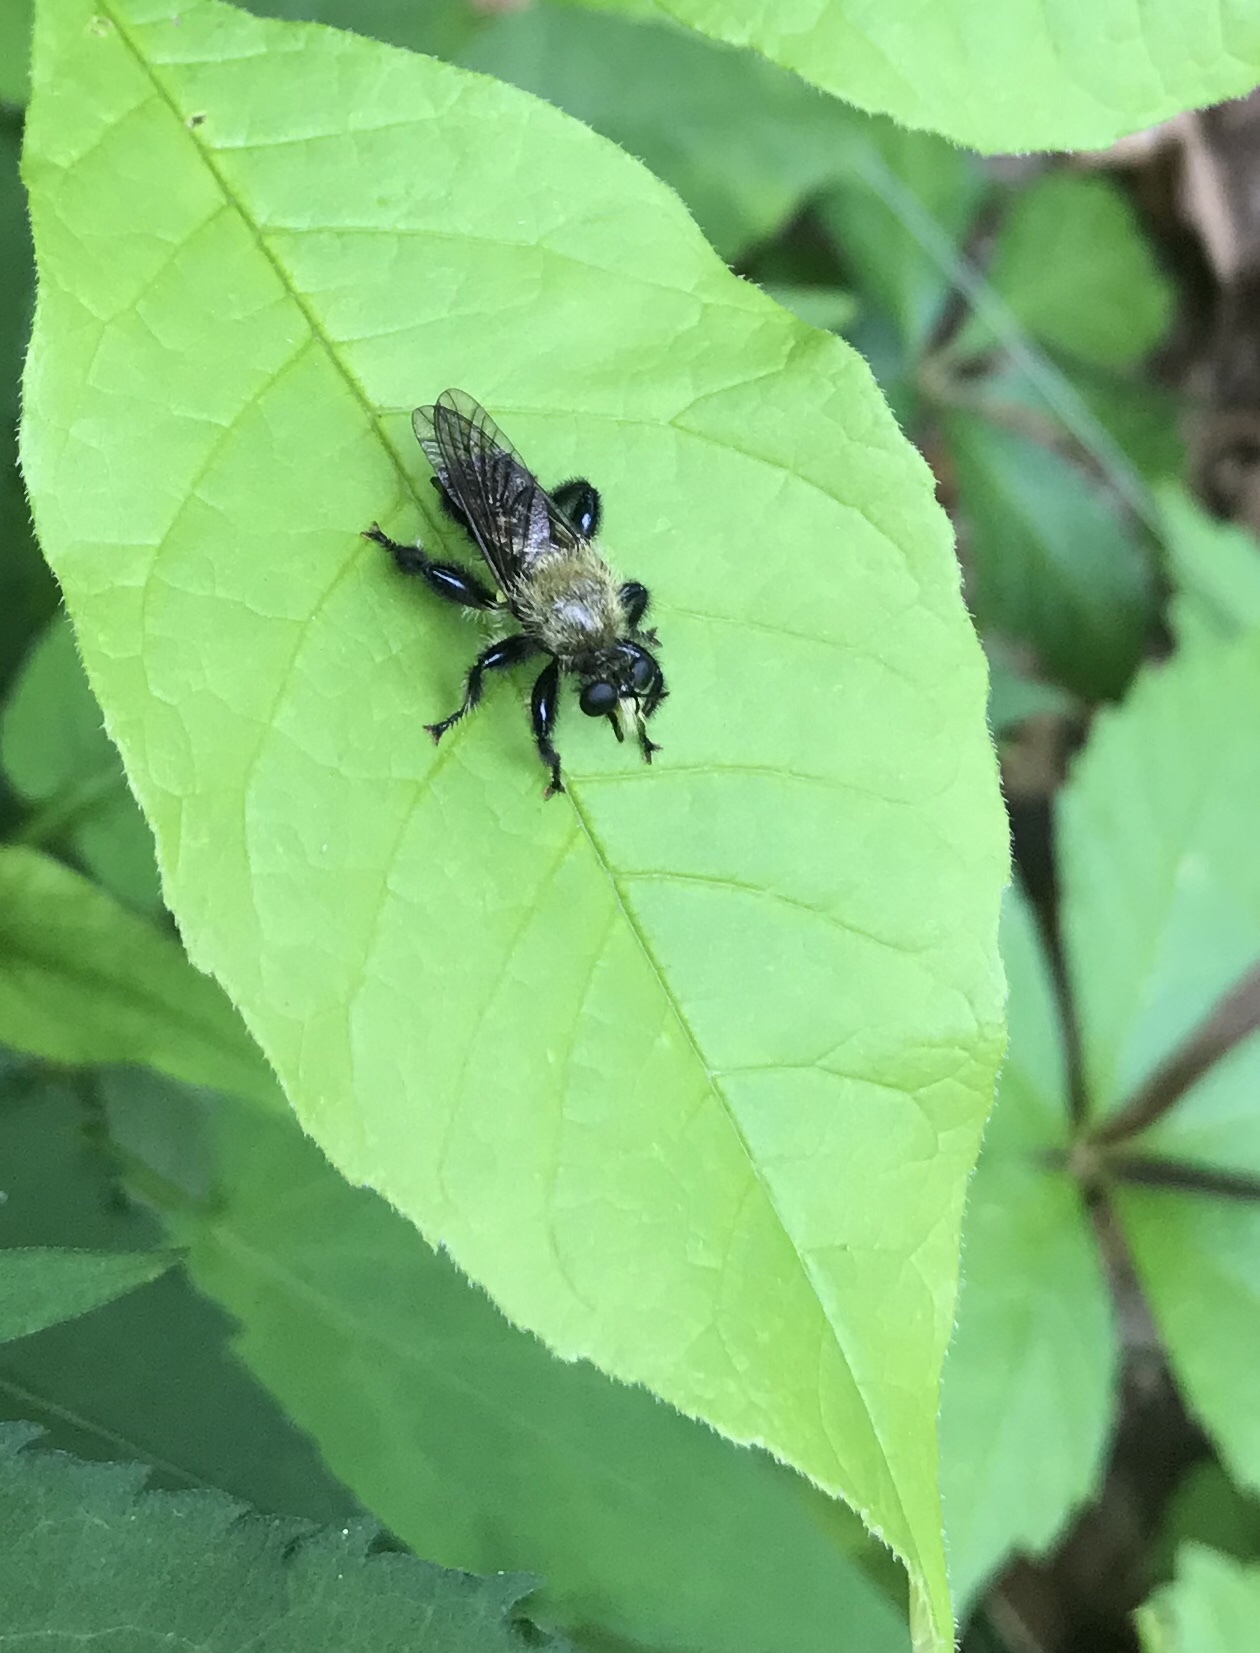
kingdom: Animalia
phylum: Arthropoda
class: Insecta
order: Diptera
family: Asilidae
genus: Laphria
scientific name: Laphria flavicollis
